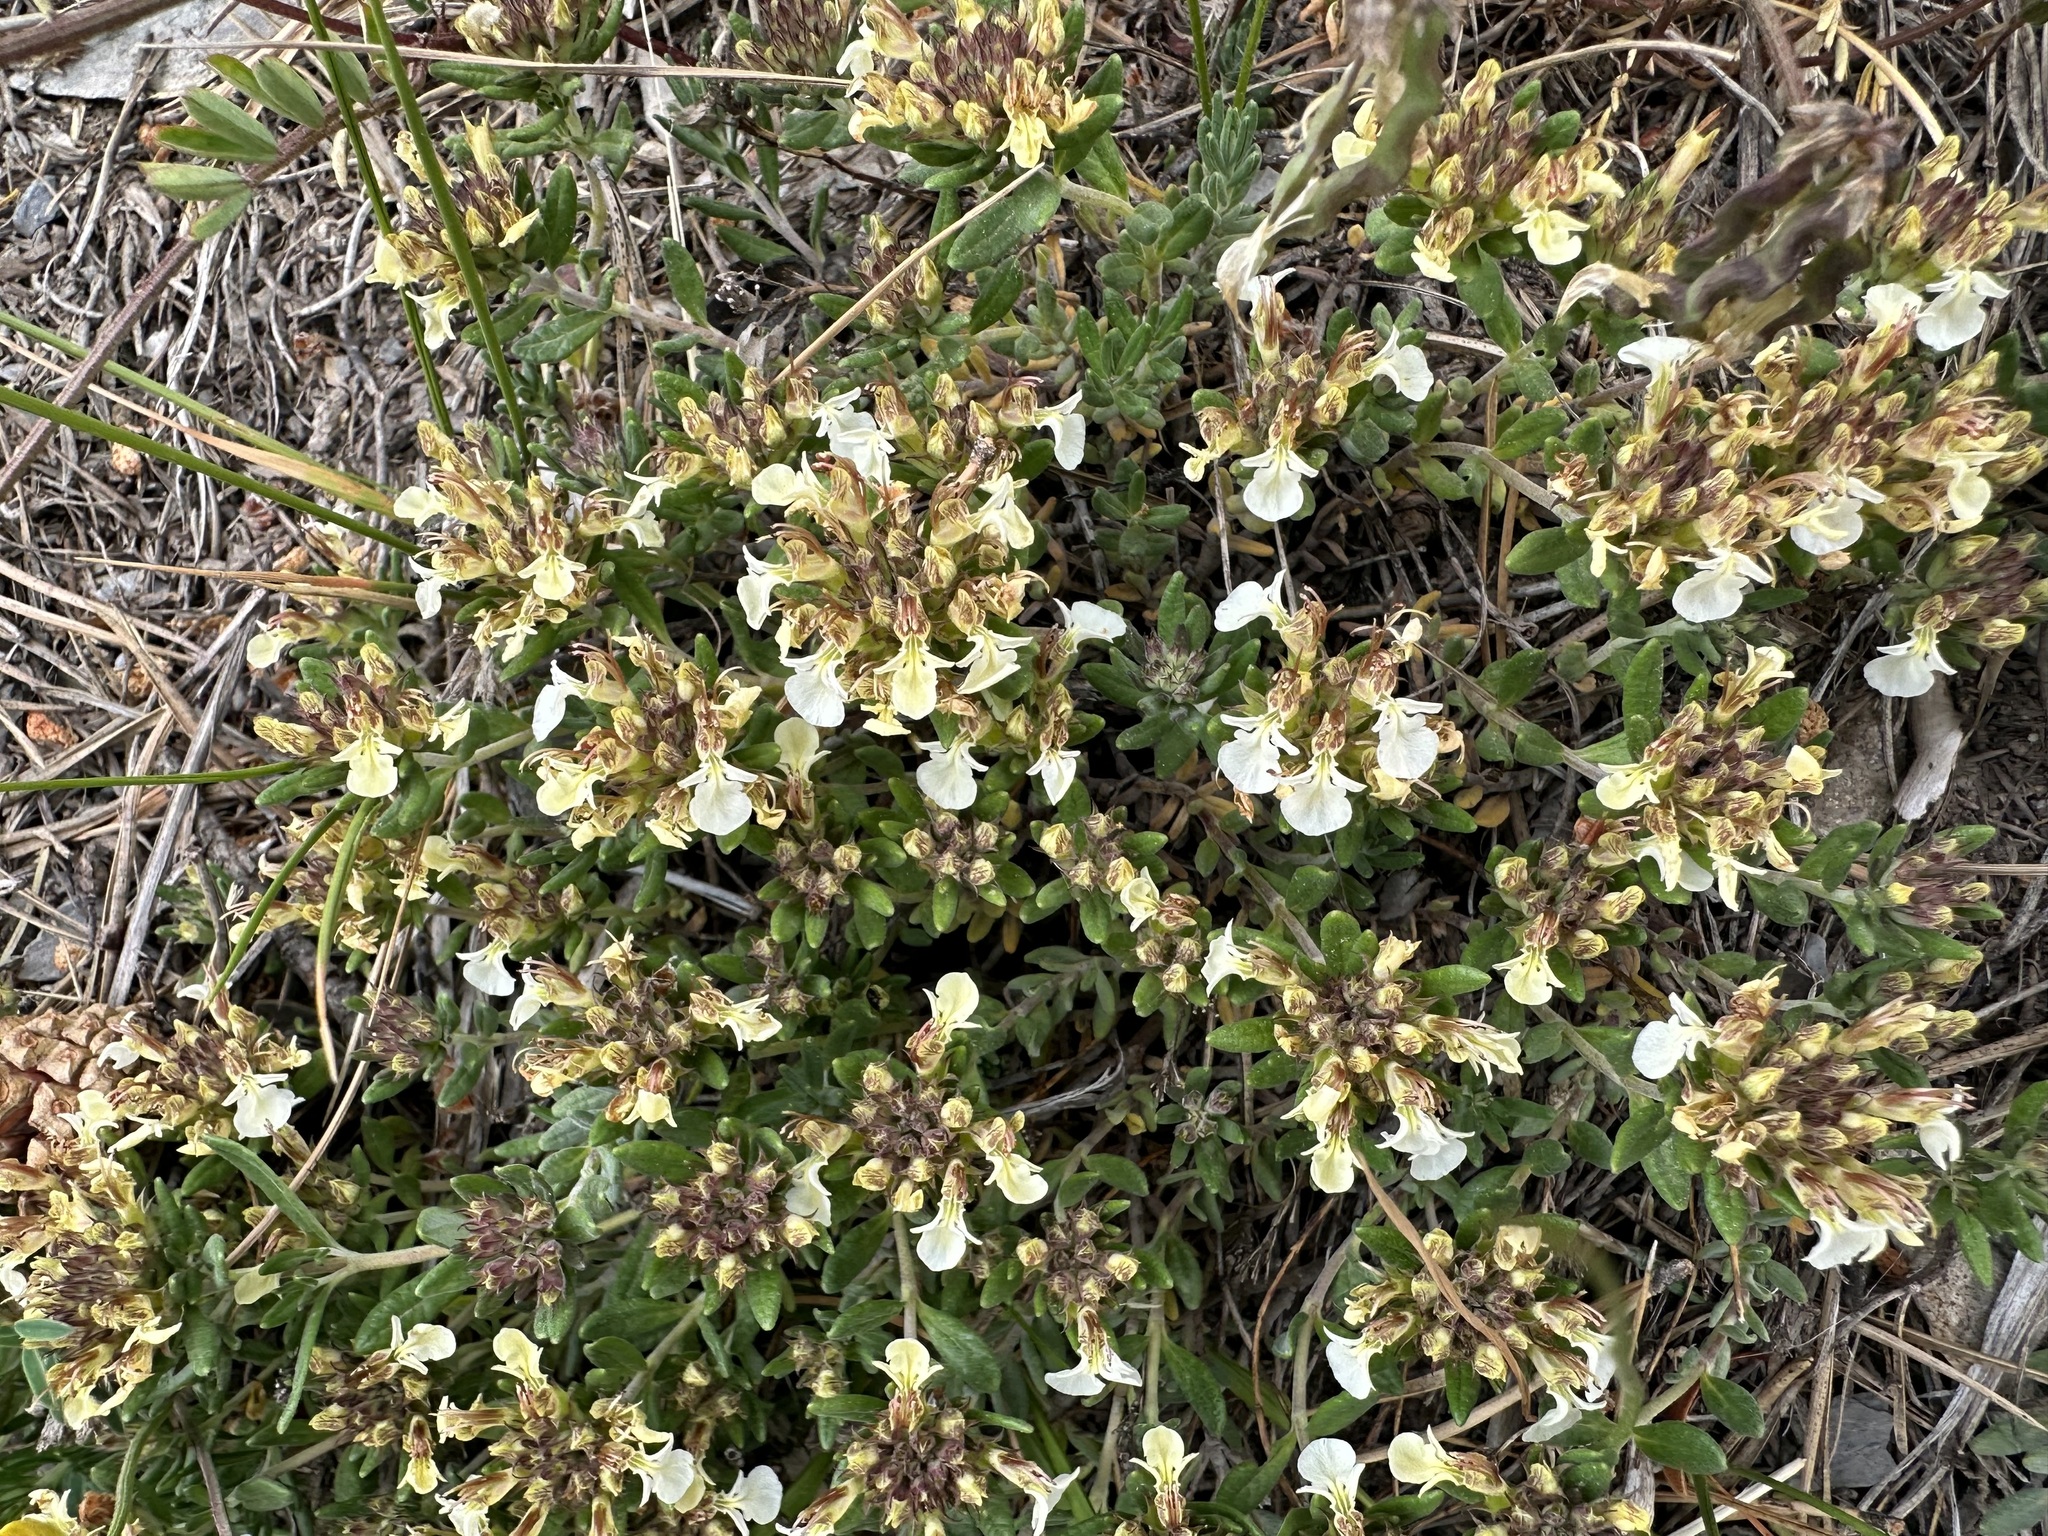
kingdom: Plantae
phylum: Tracheophyta
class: Magnoliopsida
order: Lamiales
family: Lamiaceae
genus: Teucrium
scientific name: Teucrium montanum
